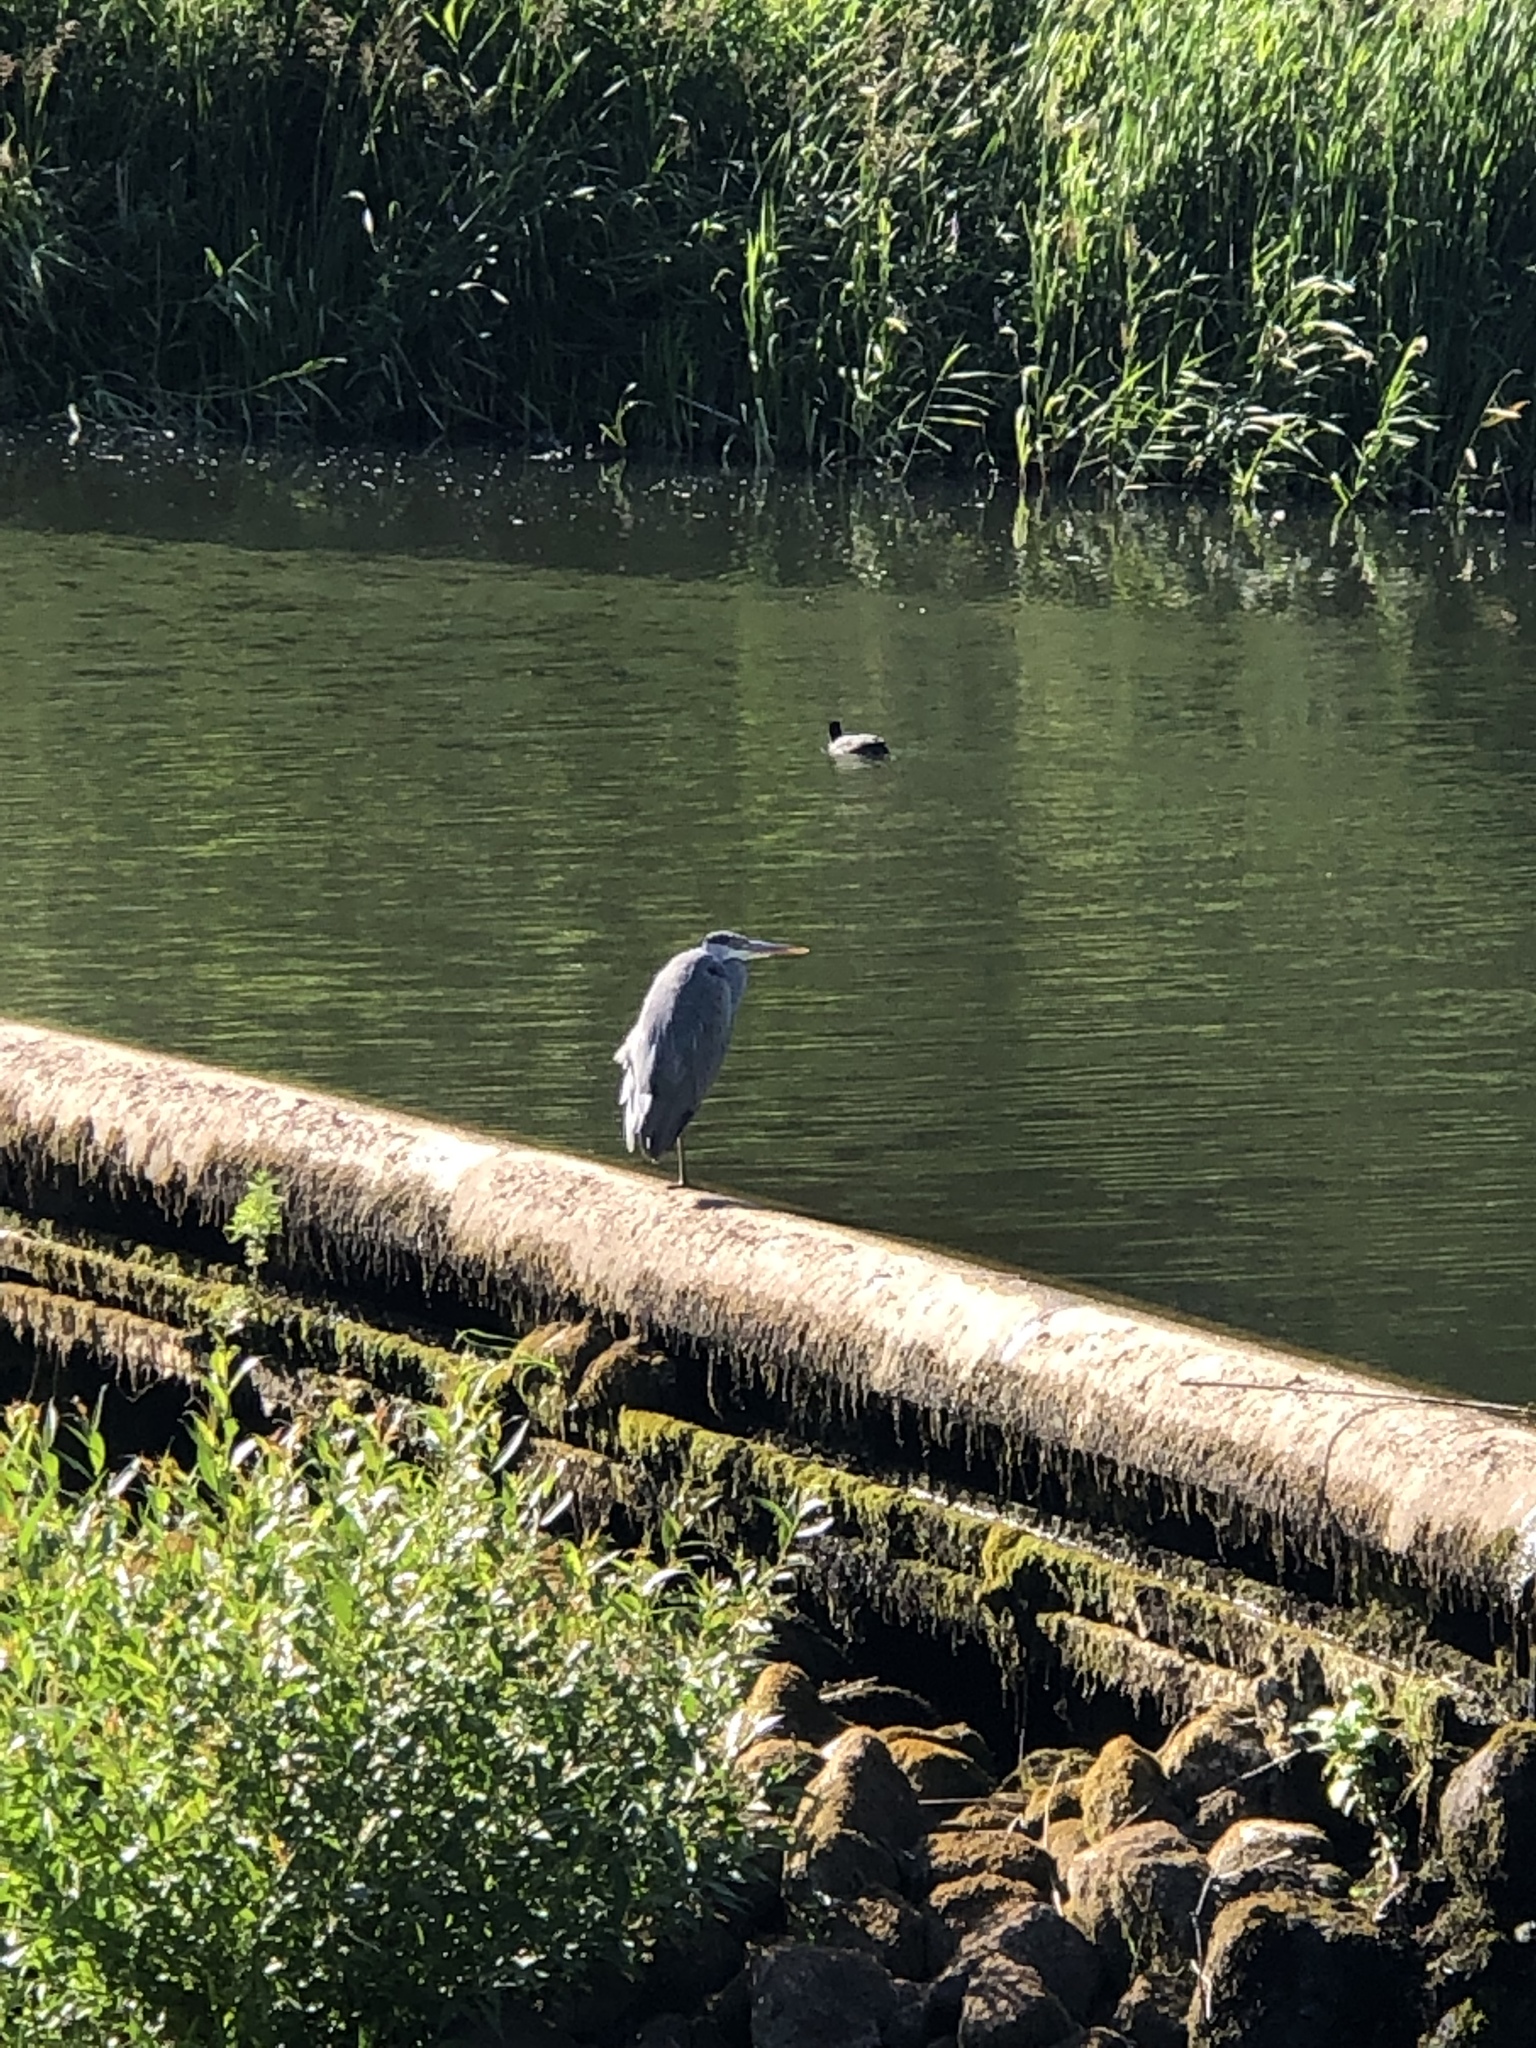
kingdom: Animalia
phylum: Chordata
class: Aves
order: Pelecaniformes
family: Ardeidae
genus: Ardea
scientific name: Ardea cinerea
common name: Grey heron
